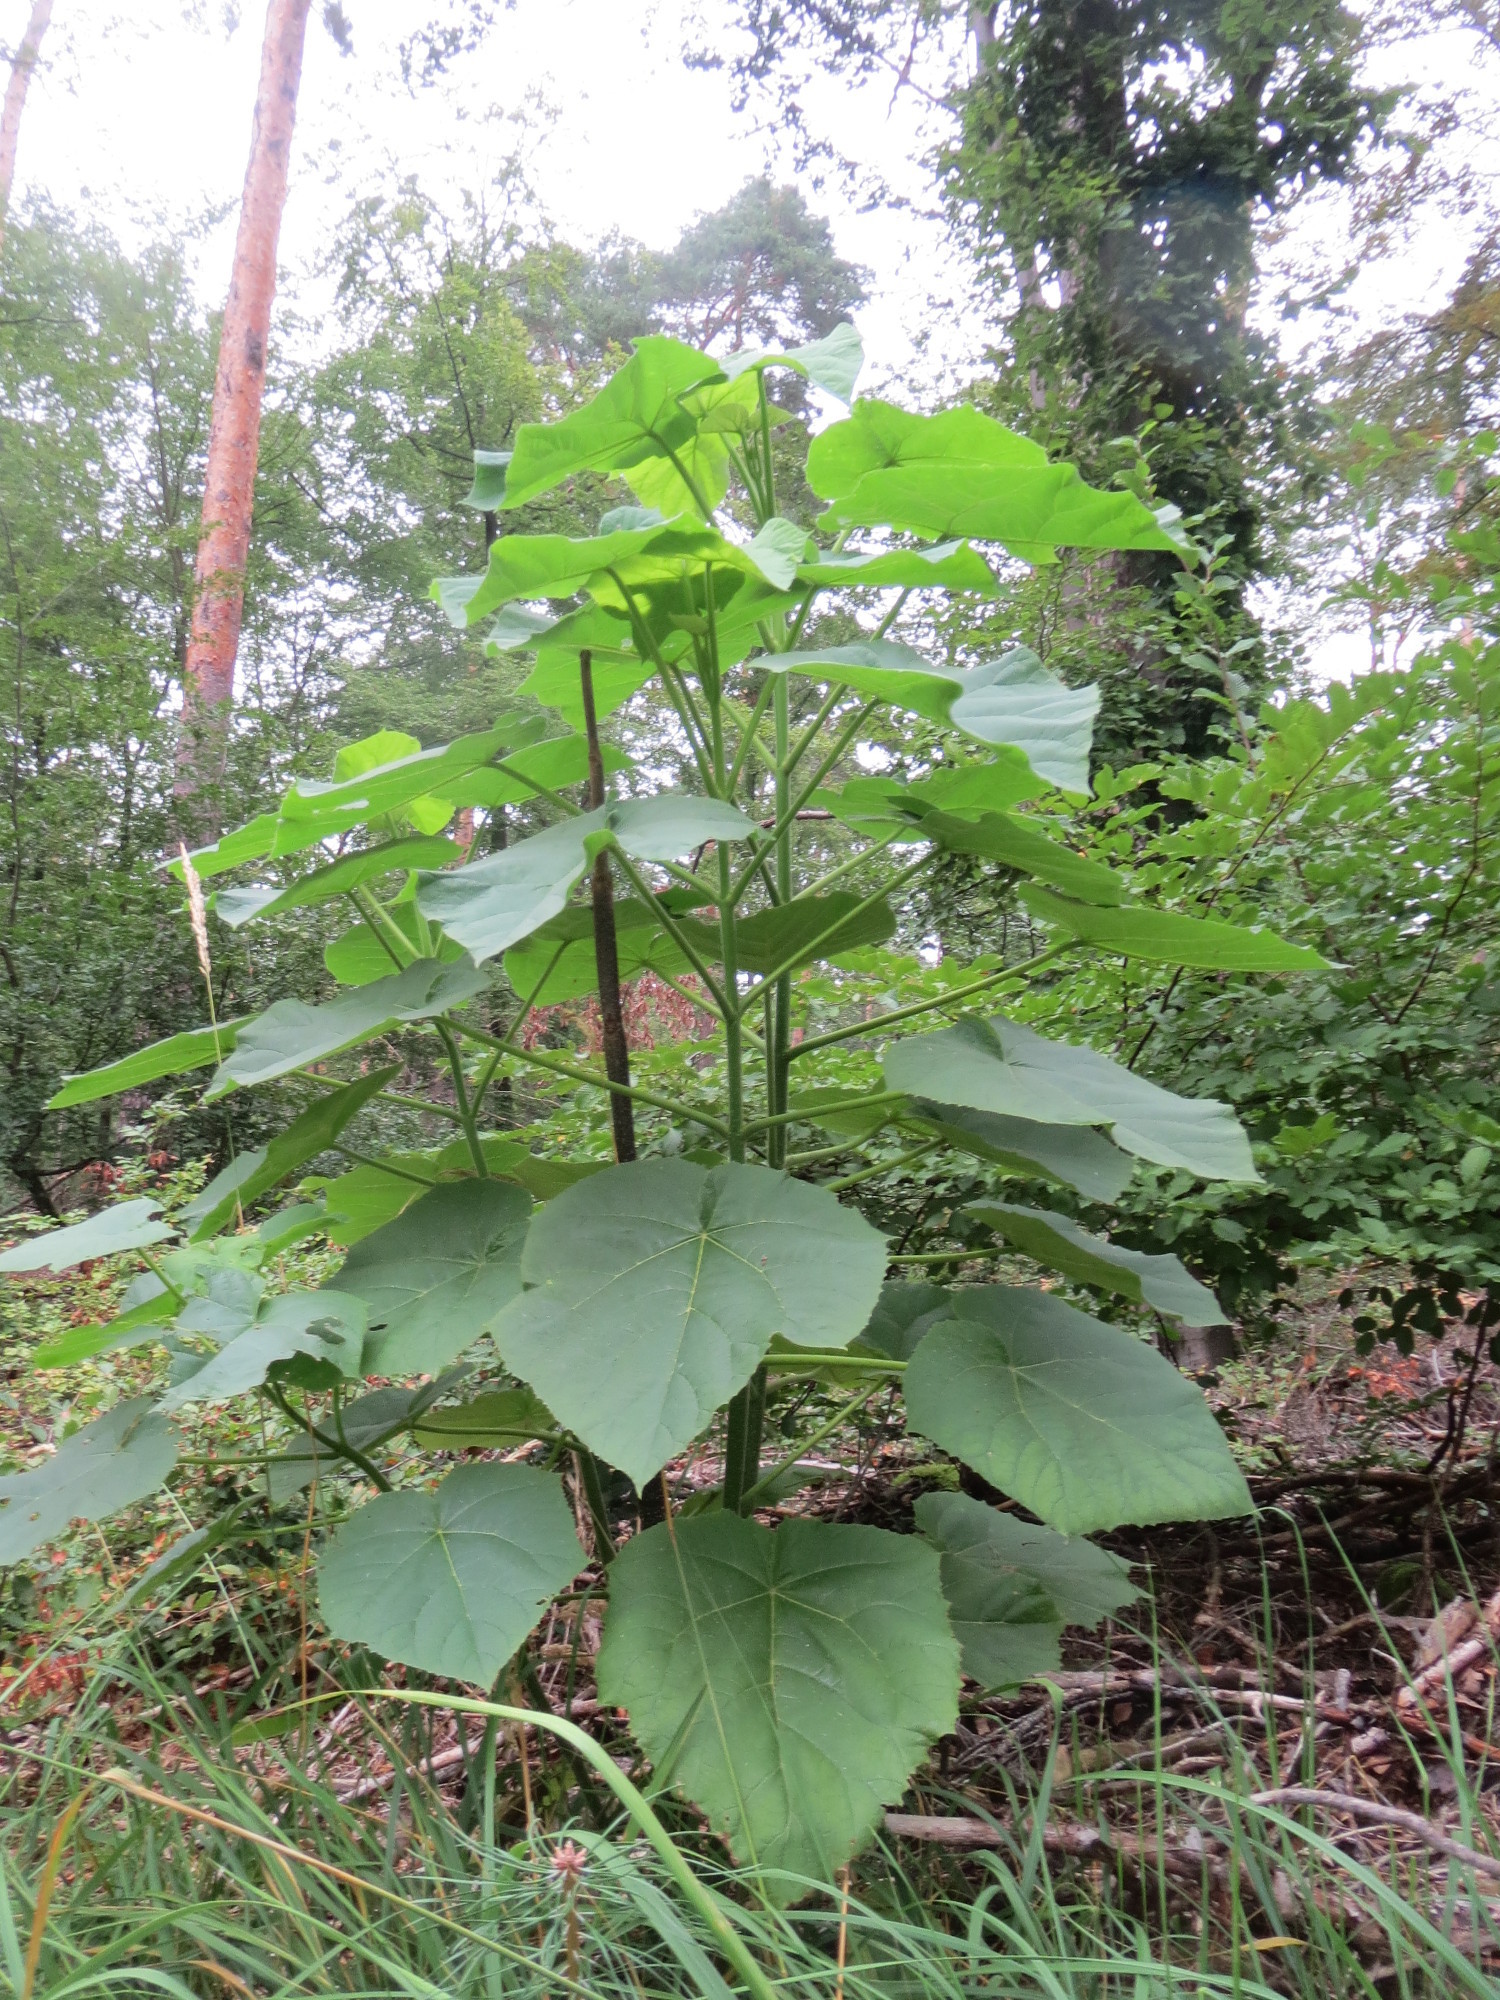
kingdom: Plantae
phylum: Tracheophyta
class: Magnoliopsida
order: Lamiales
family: Paulowniaceae
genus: Paulownia
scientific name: Paulownia tomentosa
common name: Foxglove-tree
